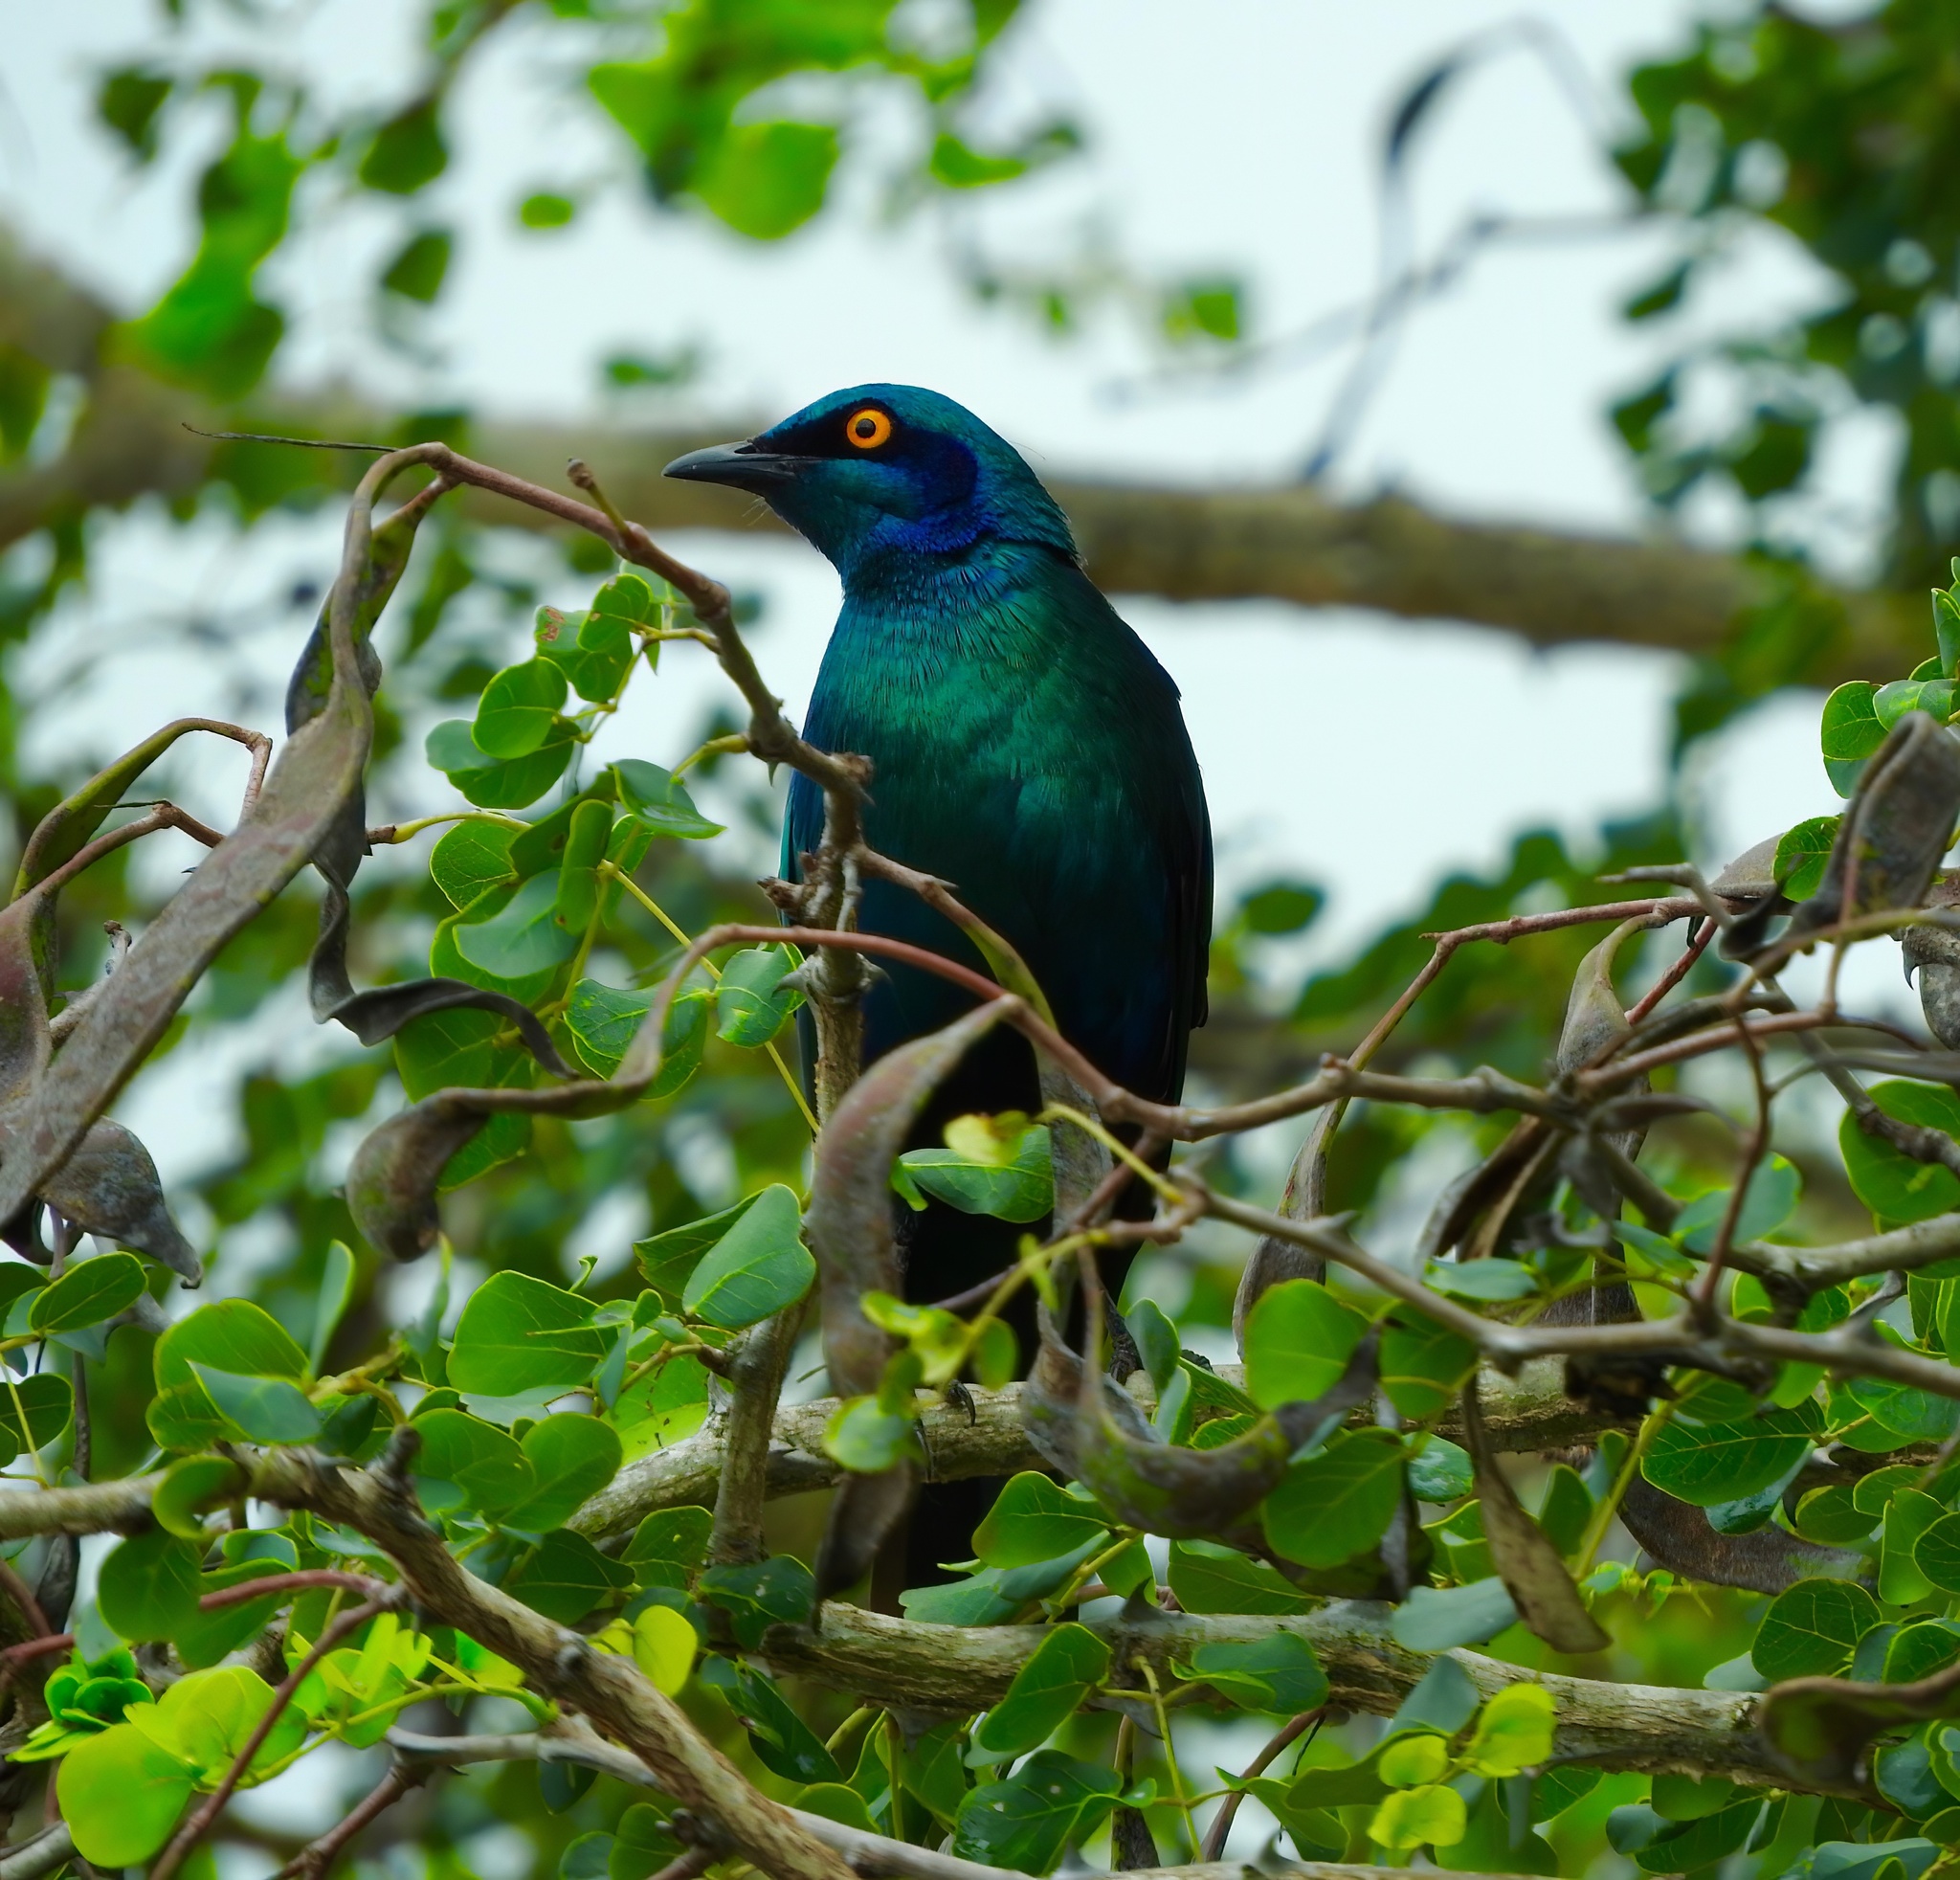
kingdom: Animalia
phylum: Chordata
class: Aves
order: Passeriformes
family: Sturnidae
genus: Lamprotornis
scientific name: Lamprotornis chalybaeus
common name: Greater blue-eared starling
